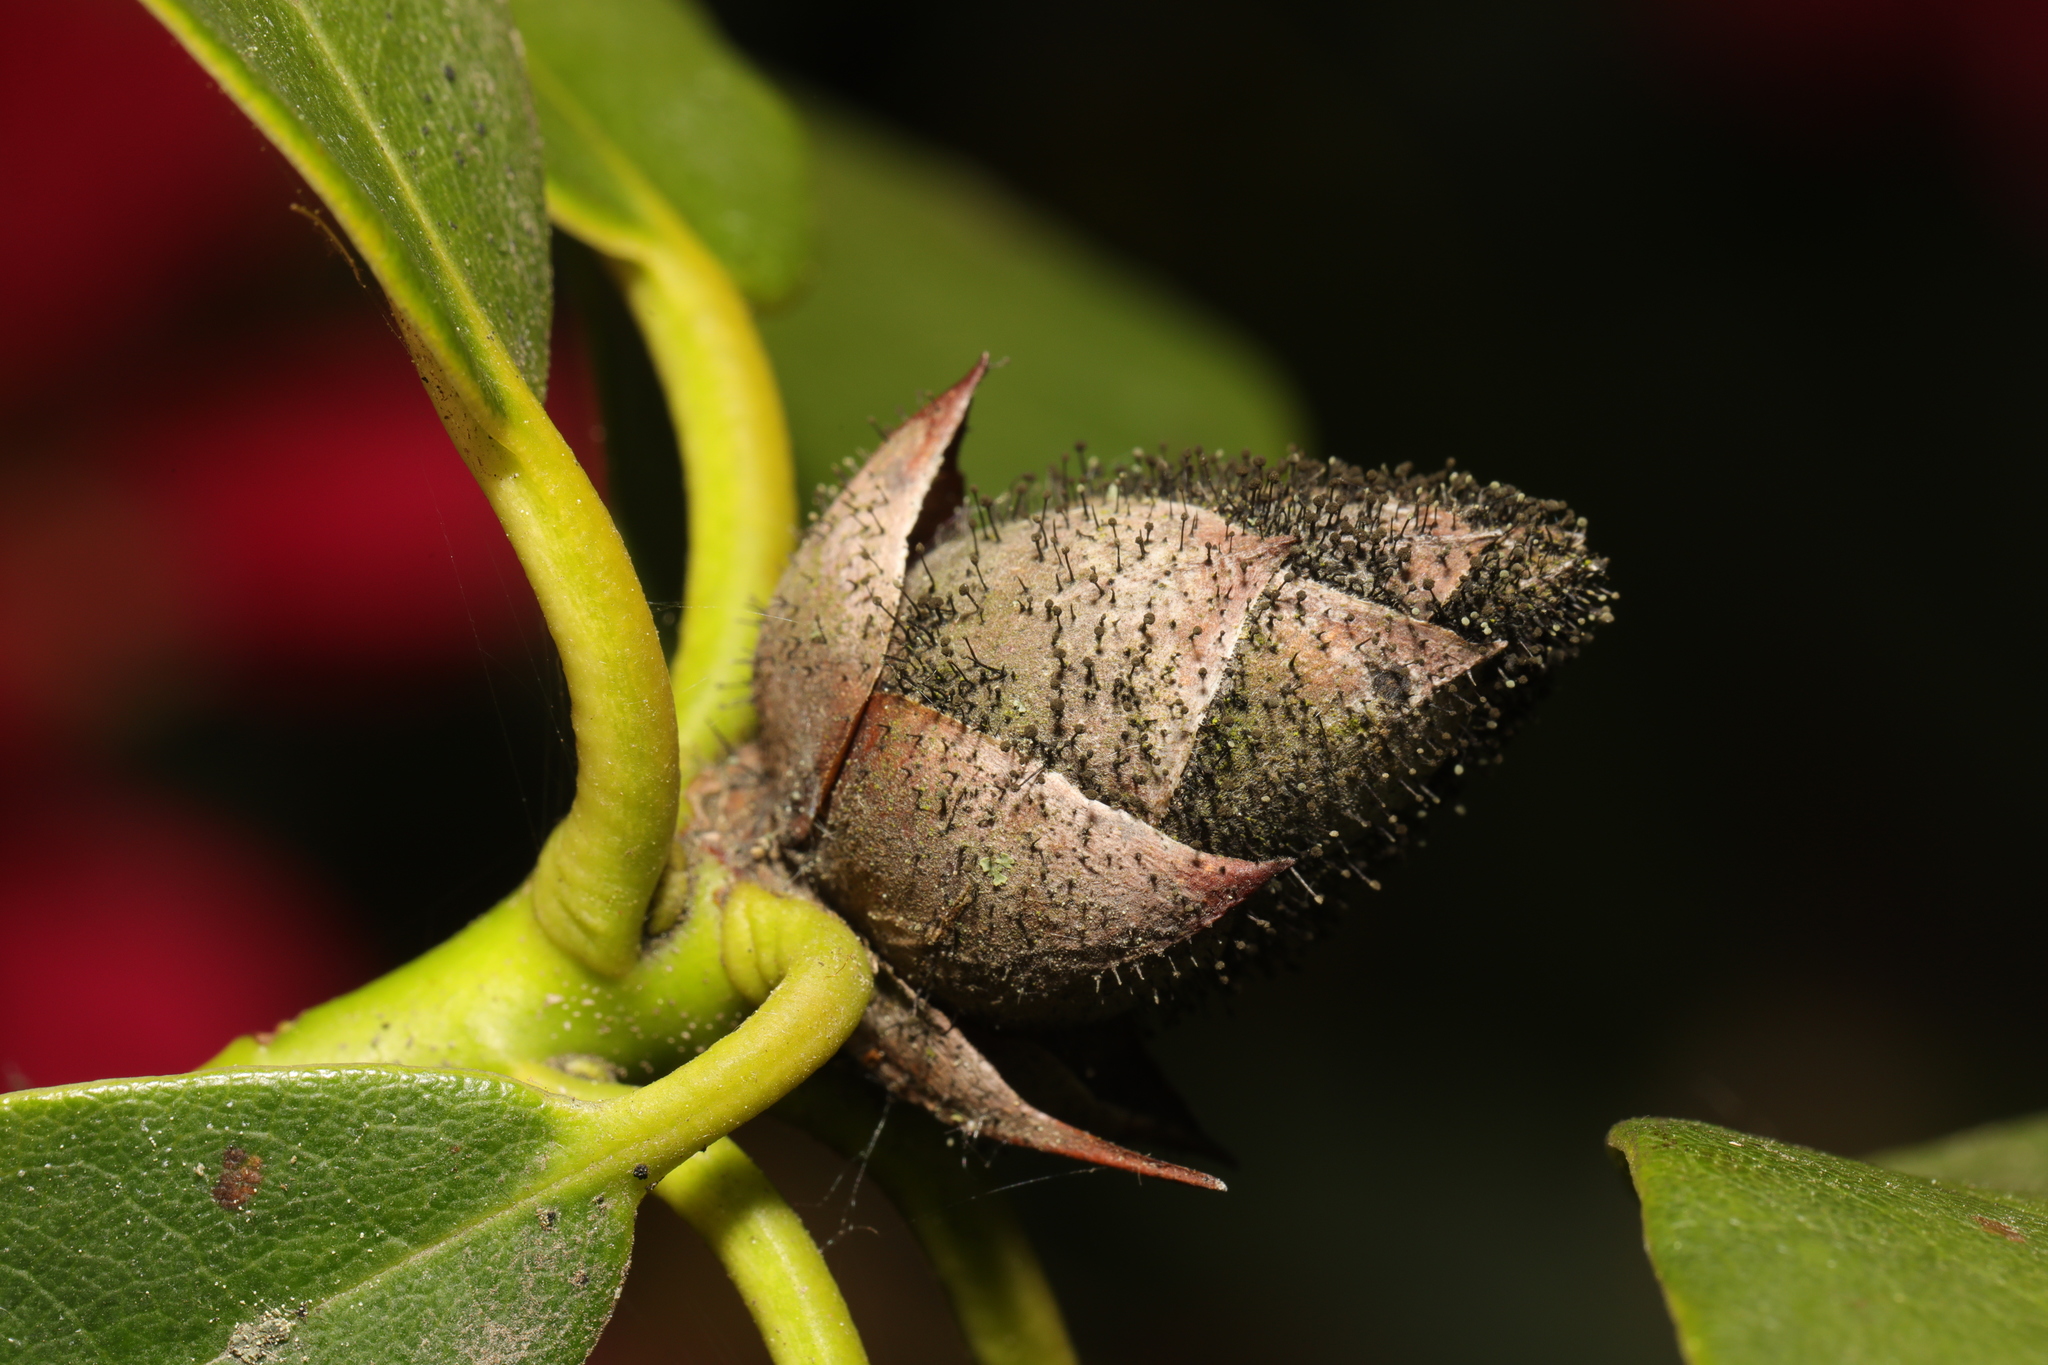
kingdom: Fungi
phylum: Ascomycota
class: Dothideomycetes
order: Pleosporales
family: Melanommataceae
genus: Seifertia
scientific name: Seifertia azaleae
